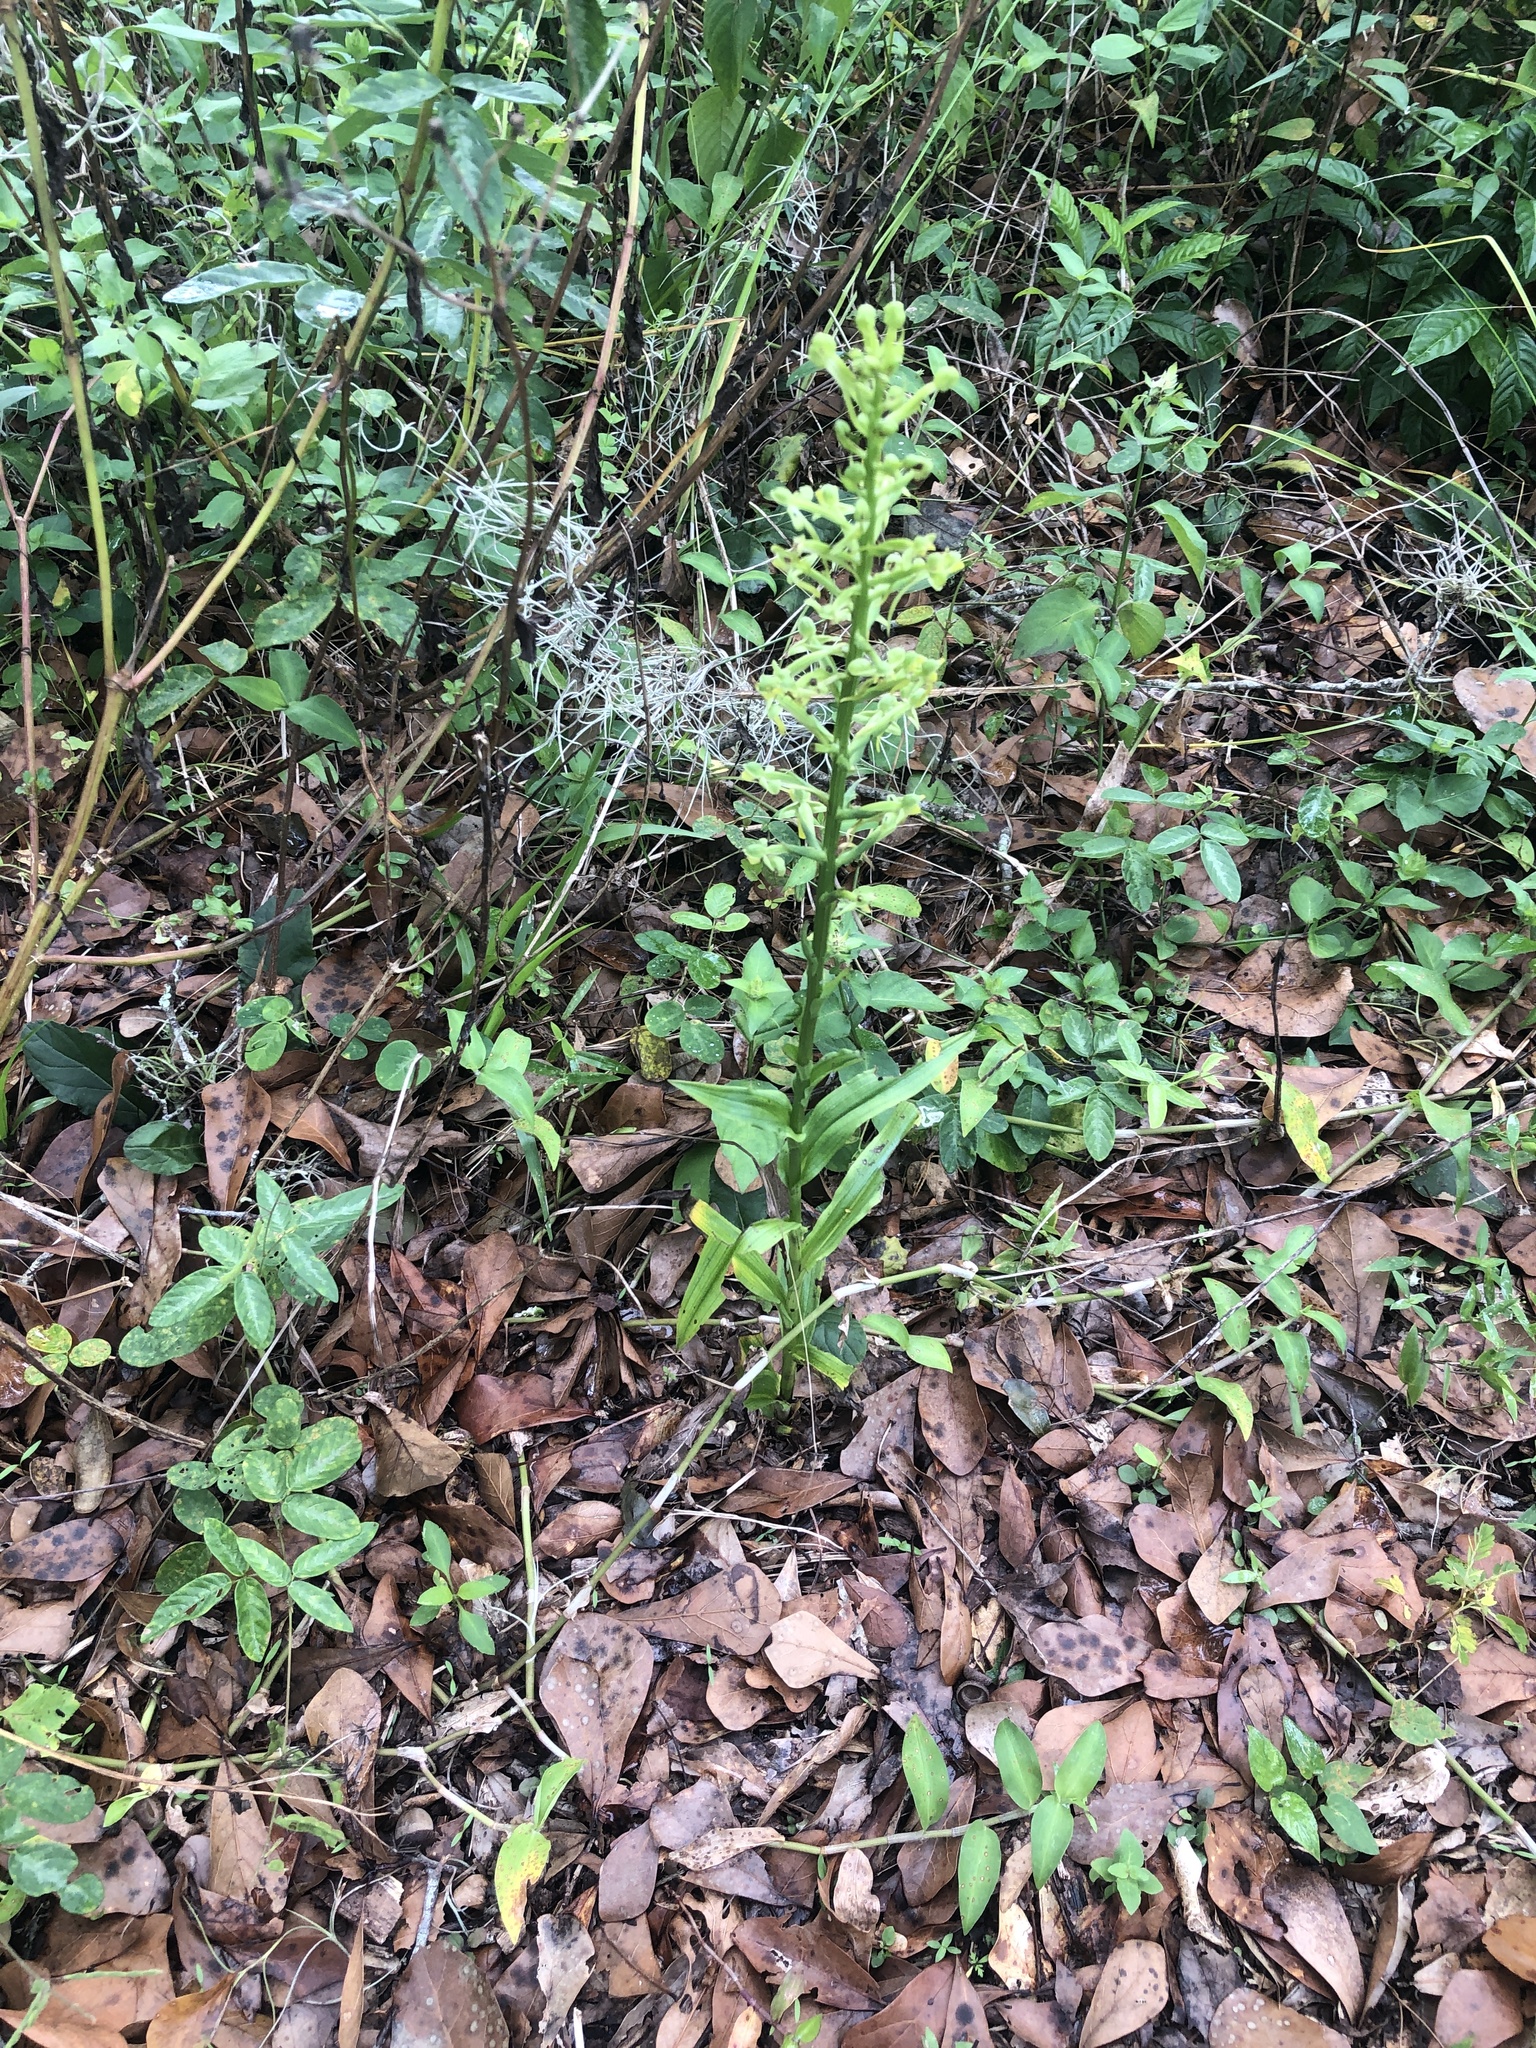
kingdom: Plantae
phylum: Tracheophyta
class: Liliopsida
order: Asparagales
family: Orchidaceae
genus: Habenaria
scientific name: Habenaria floribunda
